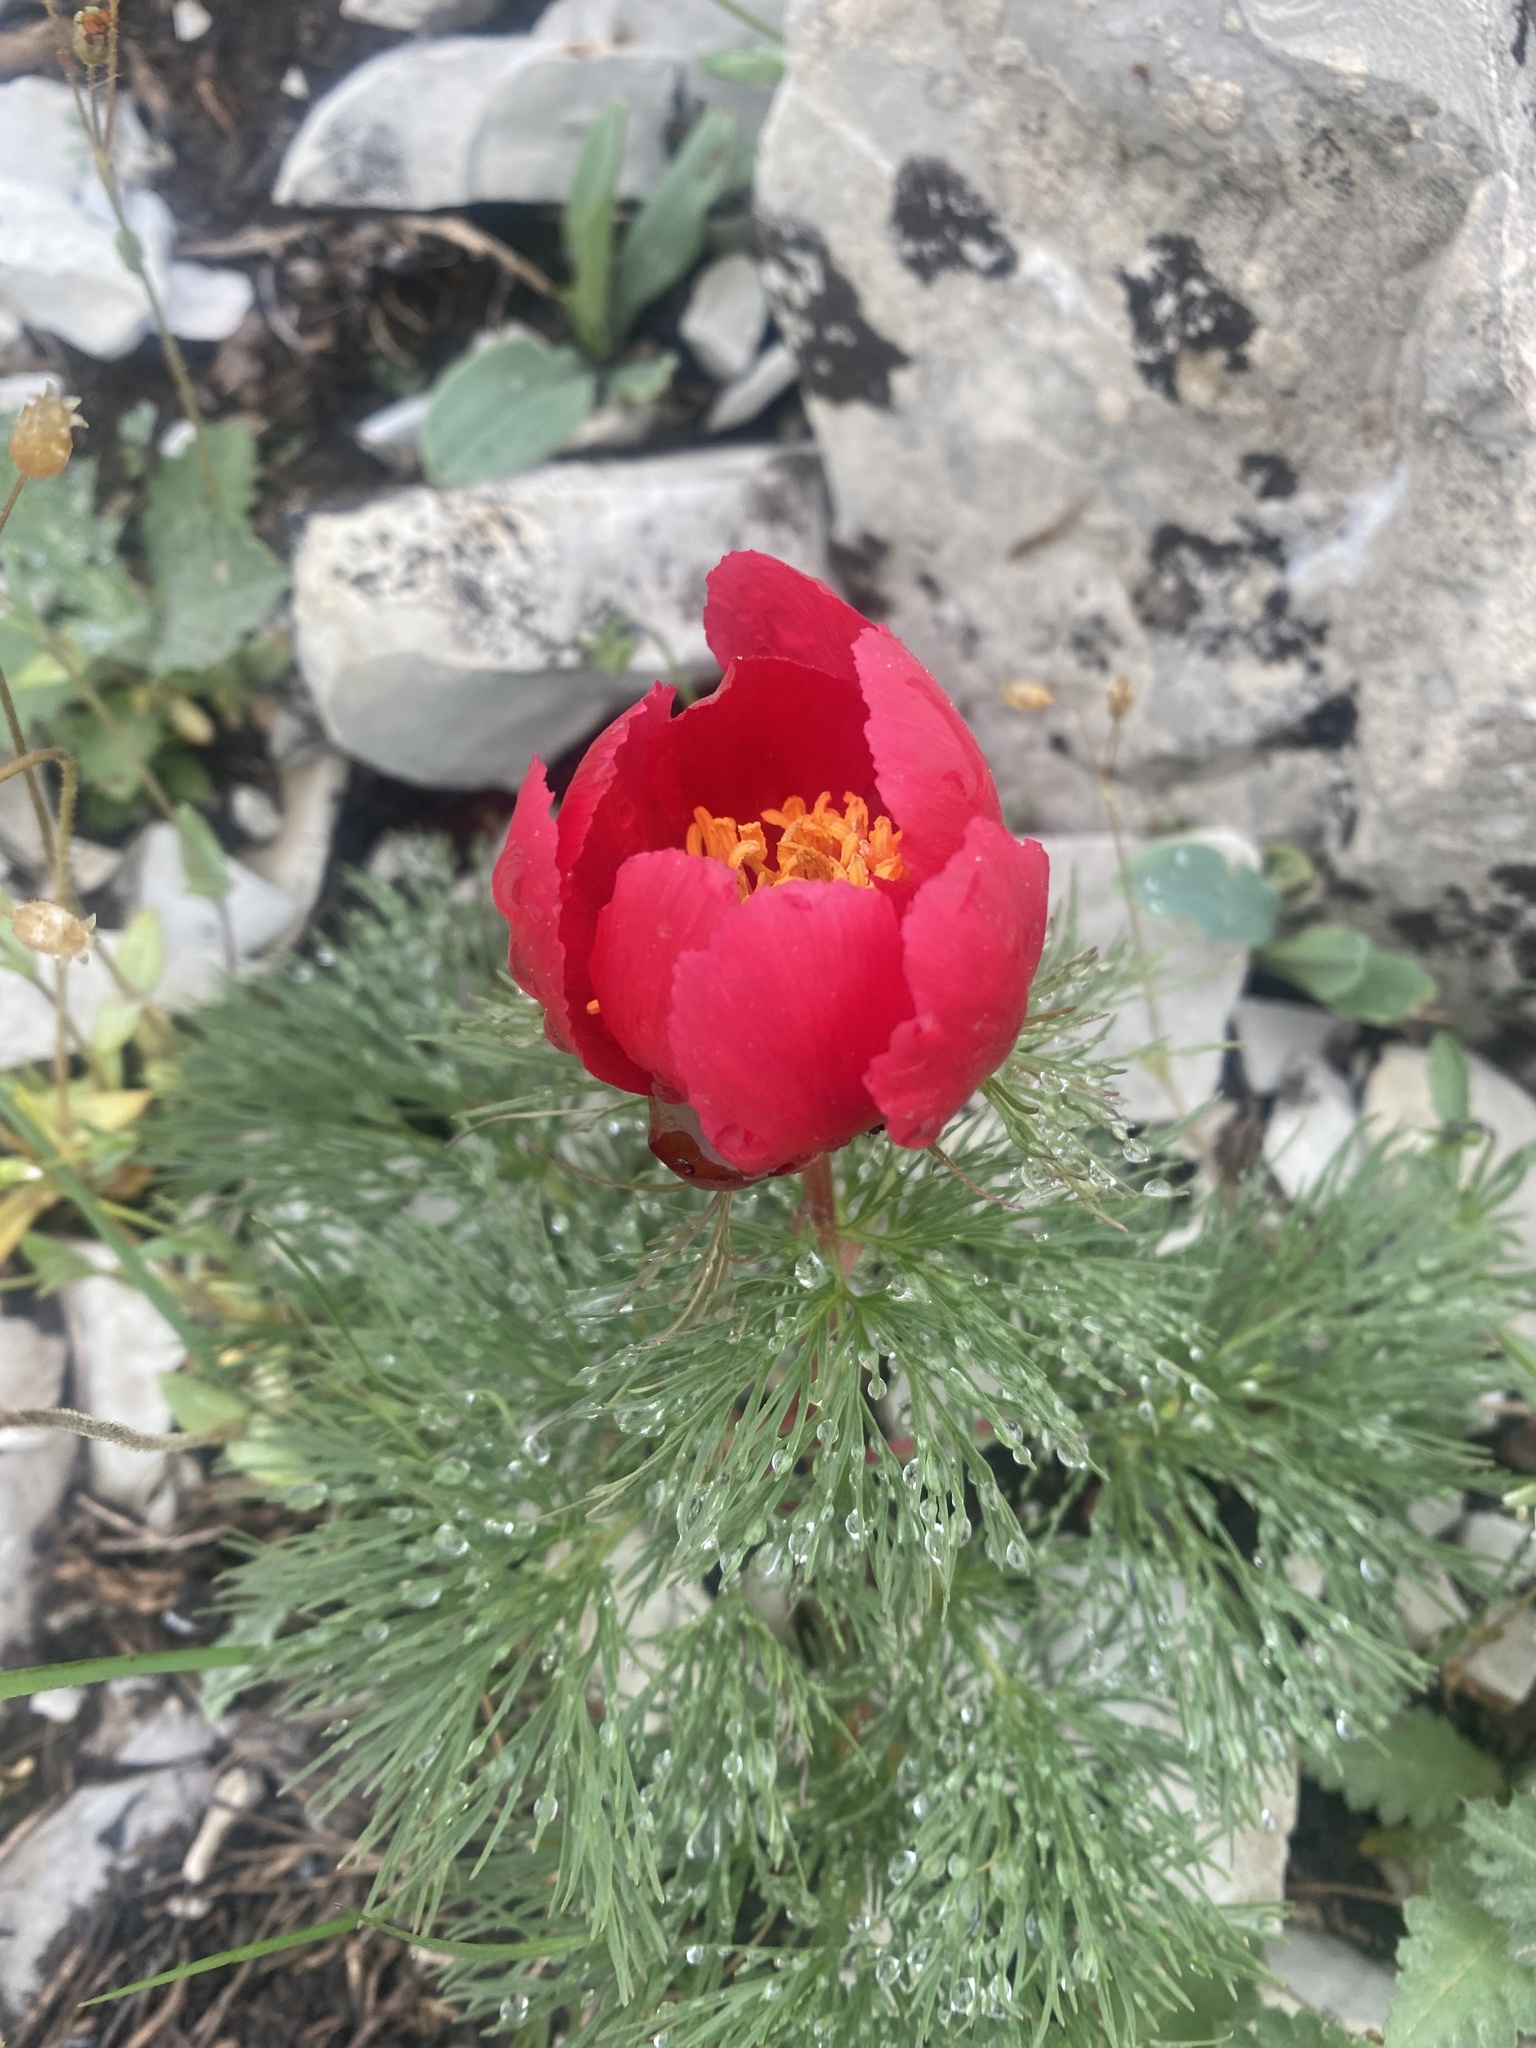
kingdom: Plantae
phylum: Tracheophyta
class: Magnoliopsida
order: Saxifragales
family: Paeoniaceae
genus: Paeonia
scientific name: Paeonia tenuifolia
